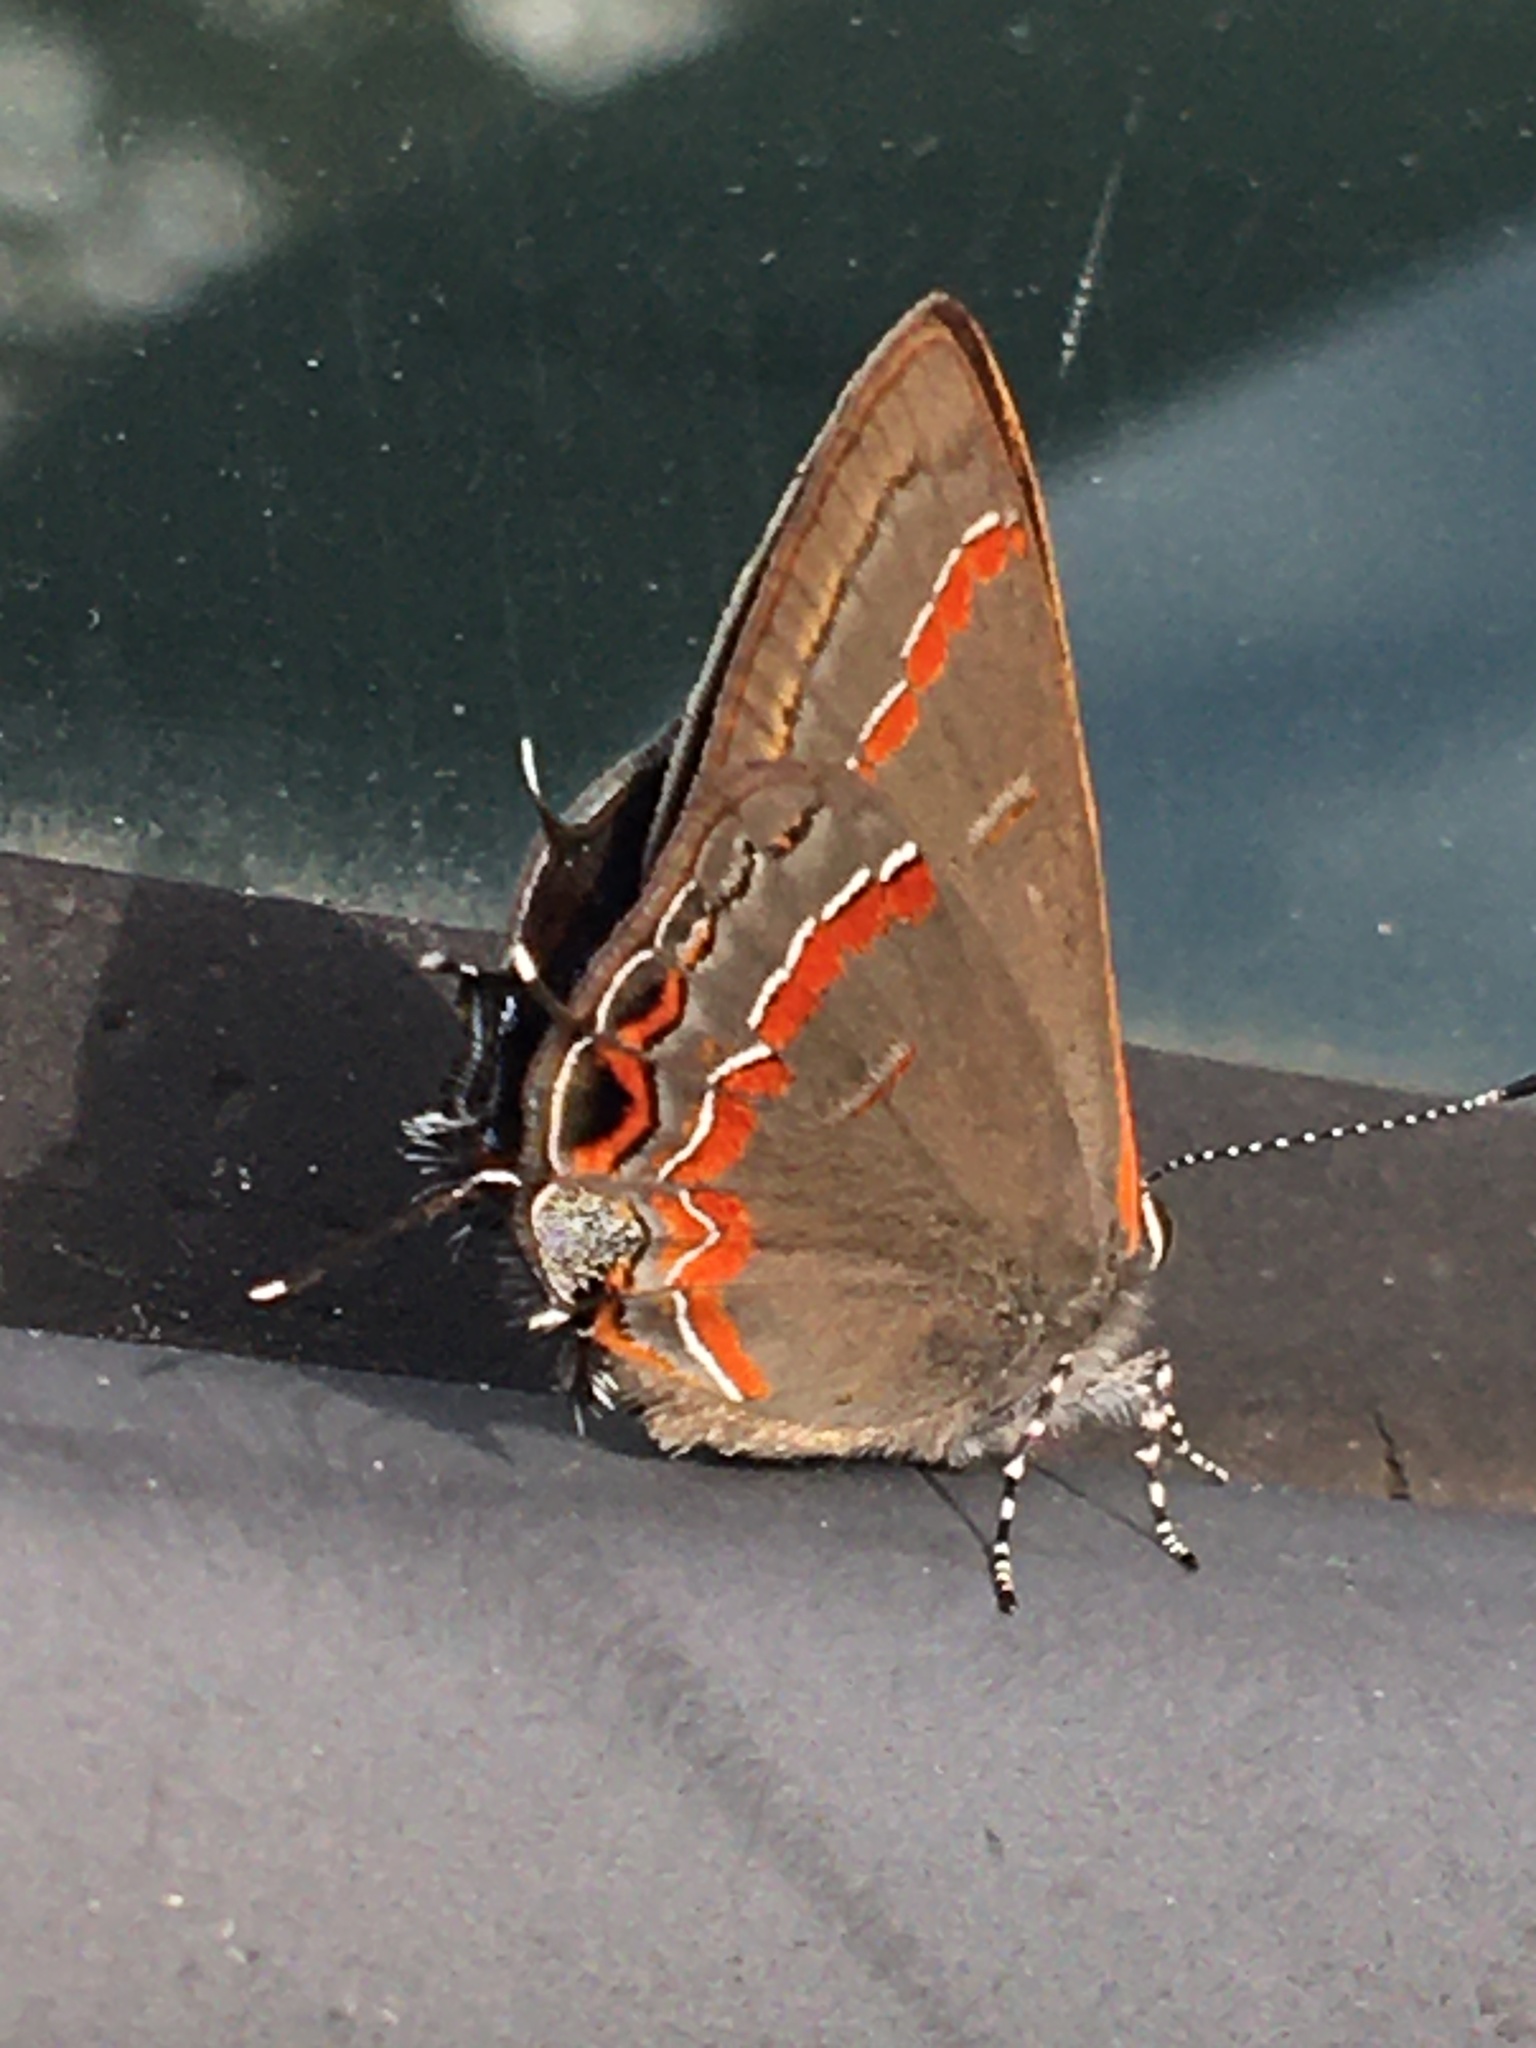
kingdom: Animalia
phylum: Arthropoda
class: Insecta
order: Lepidoptera
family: Lycaenidae
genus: Calycopis
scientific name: Calycopis cecrops
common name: Red-banded hairstreak
